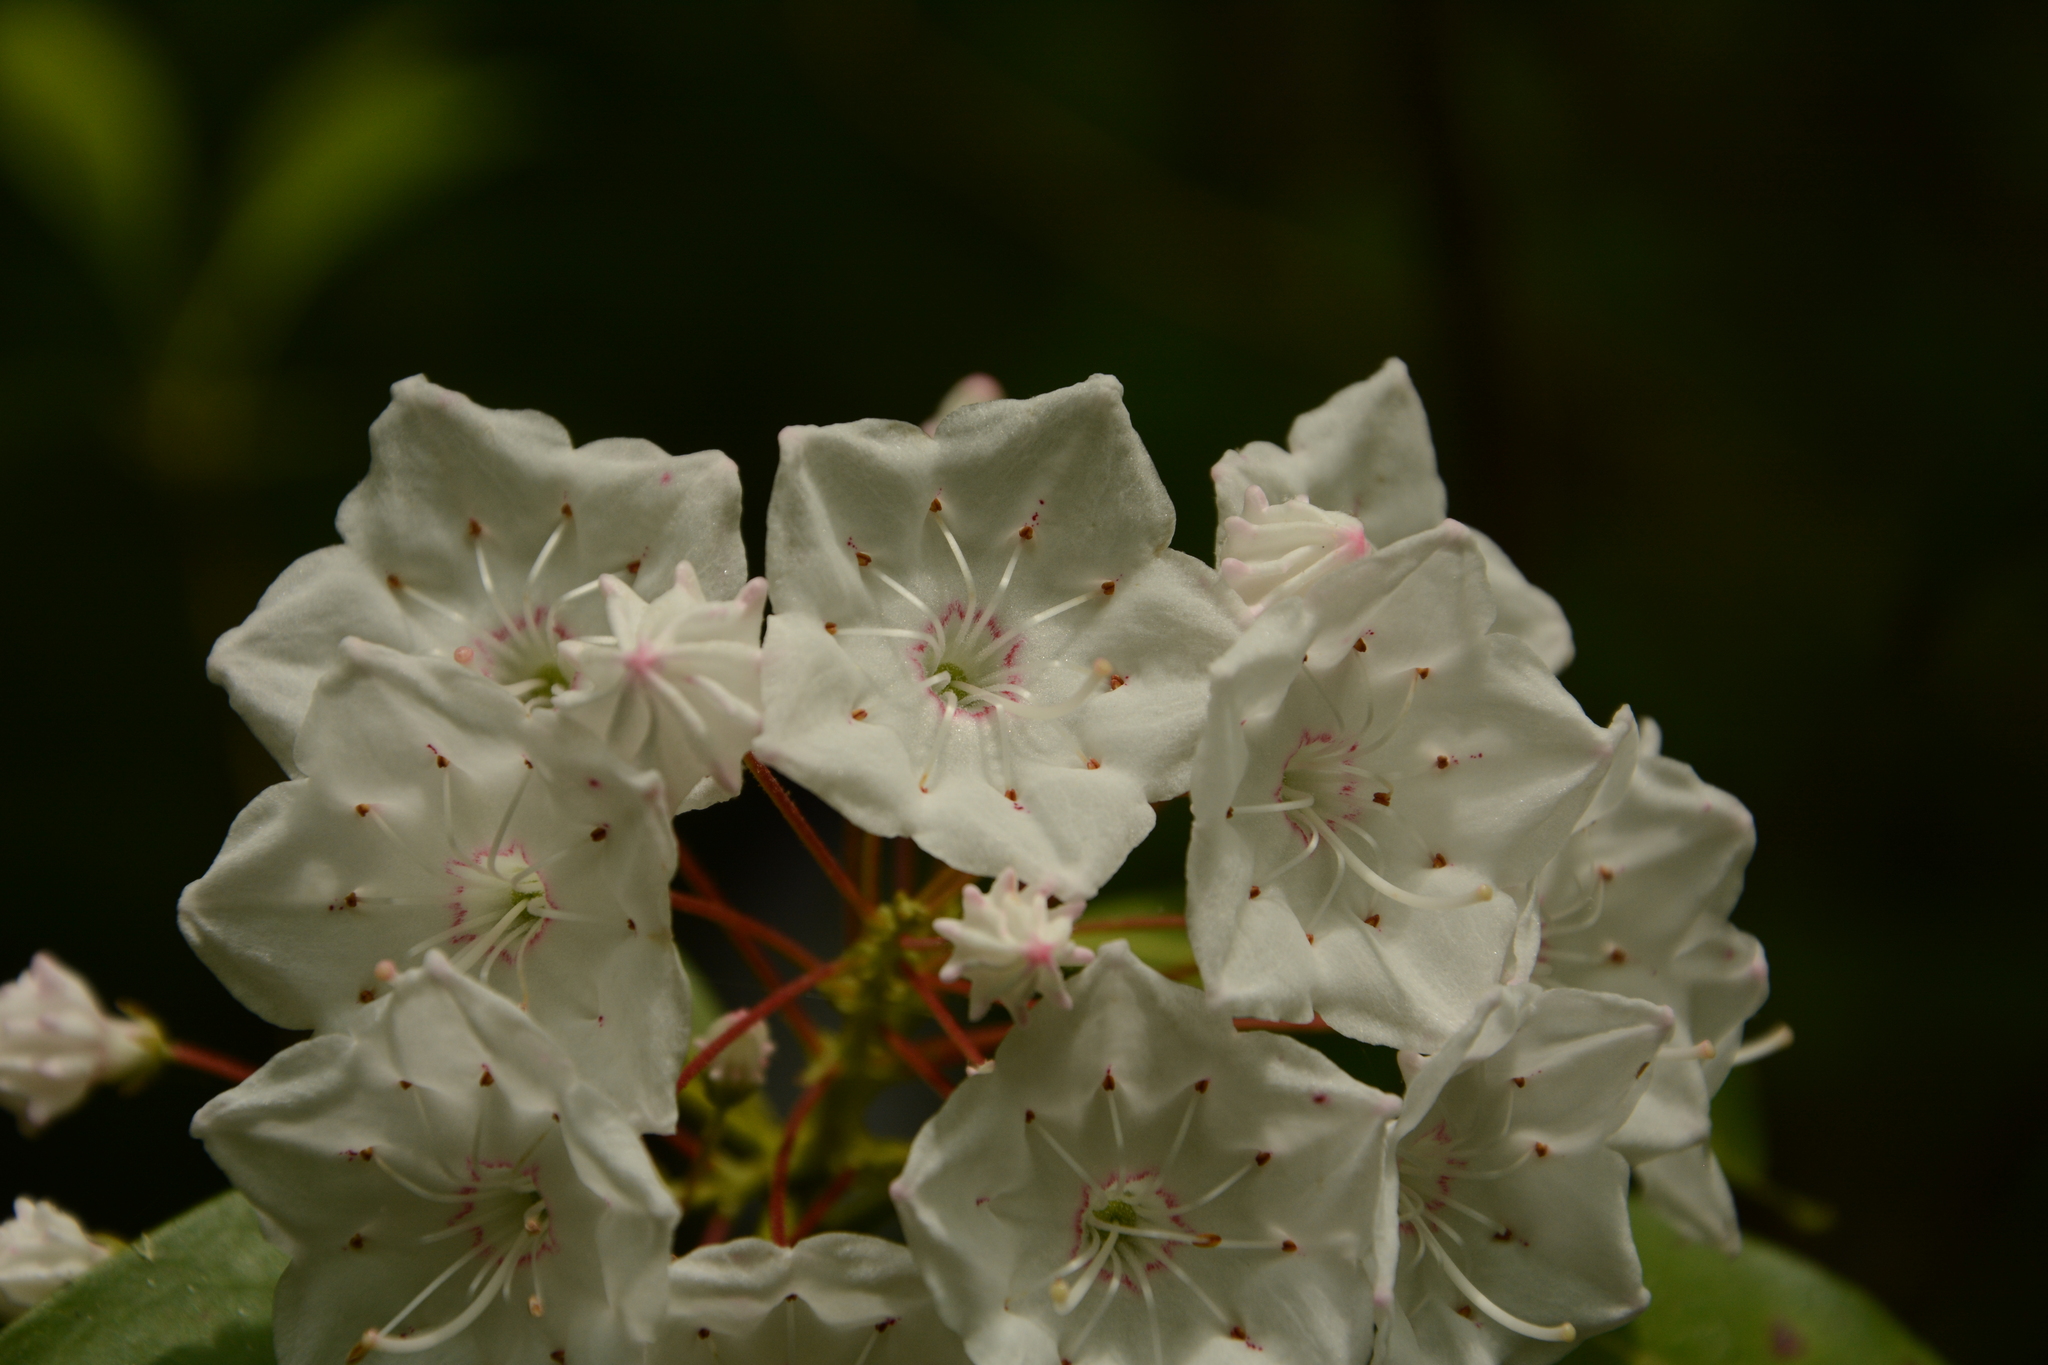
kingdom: Plantae
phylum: Tracheophyta
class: Magnoliopsida
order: Ericales
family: Ericaceae
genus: Kalmia
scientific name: Kalmia latifolia
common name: Mountain-laurel
